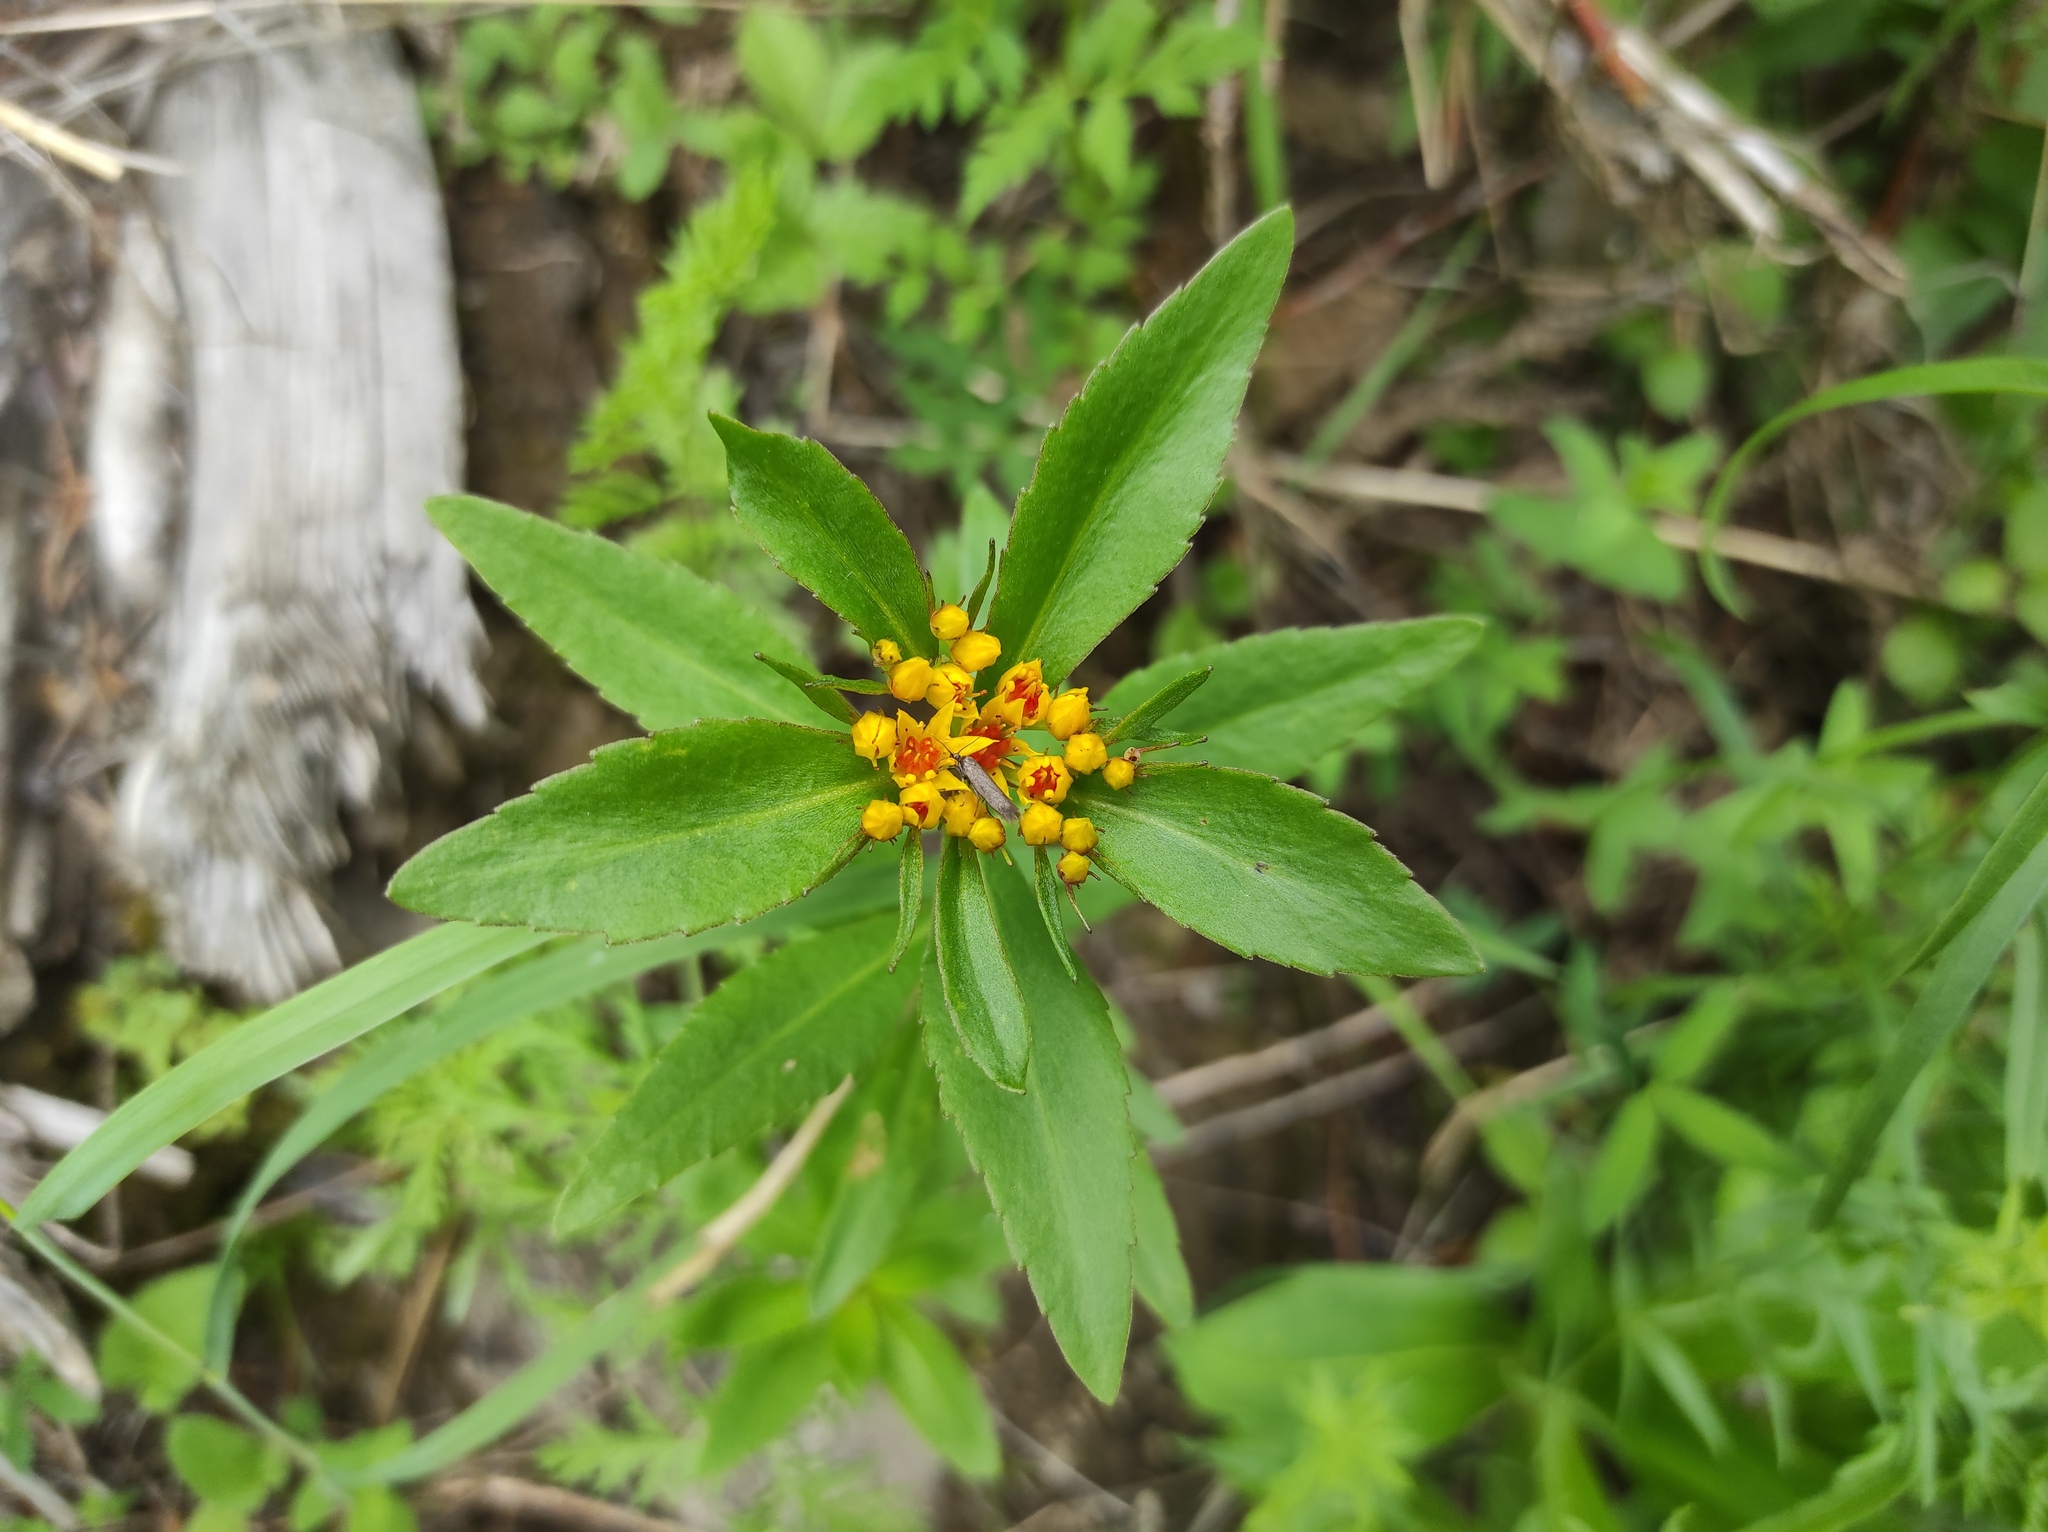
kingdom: Plantae
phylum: Tracheophyta
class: Magnoliopsida
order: Saxifragales
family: Crassulaceae
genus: Phedimus
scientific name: Phedimus aizoon
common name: Orpin aizoon
